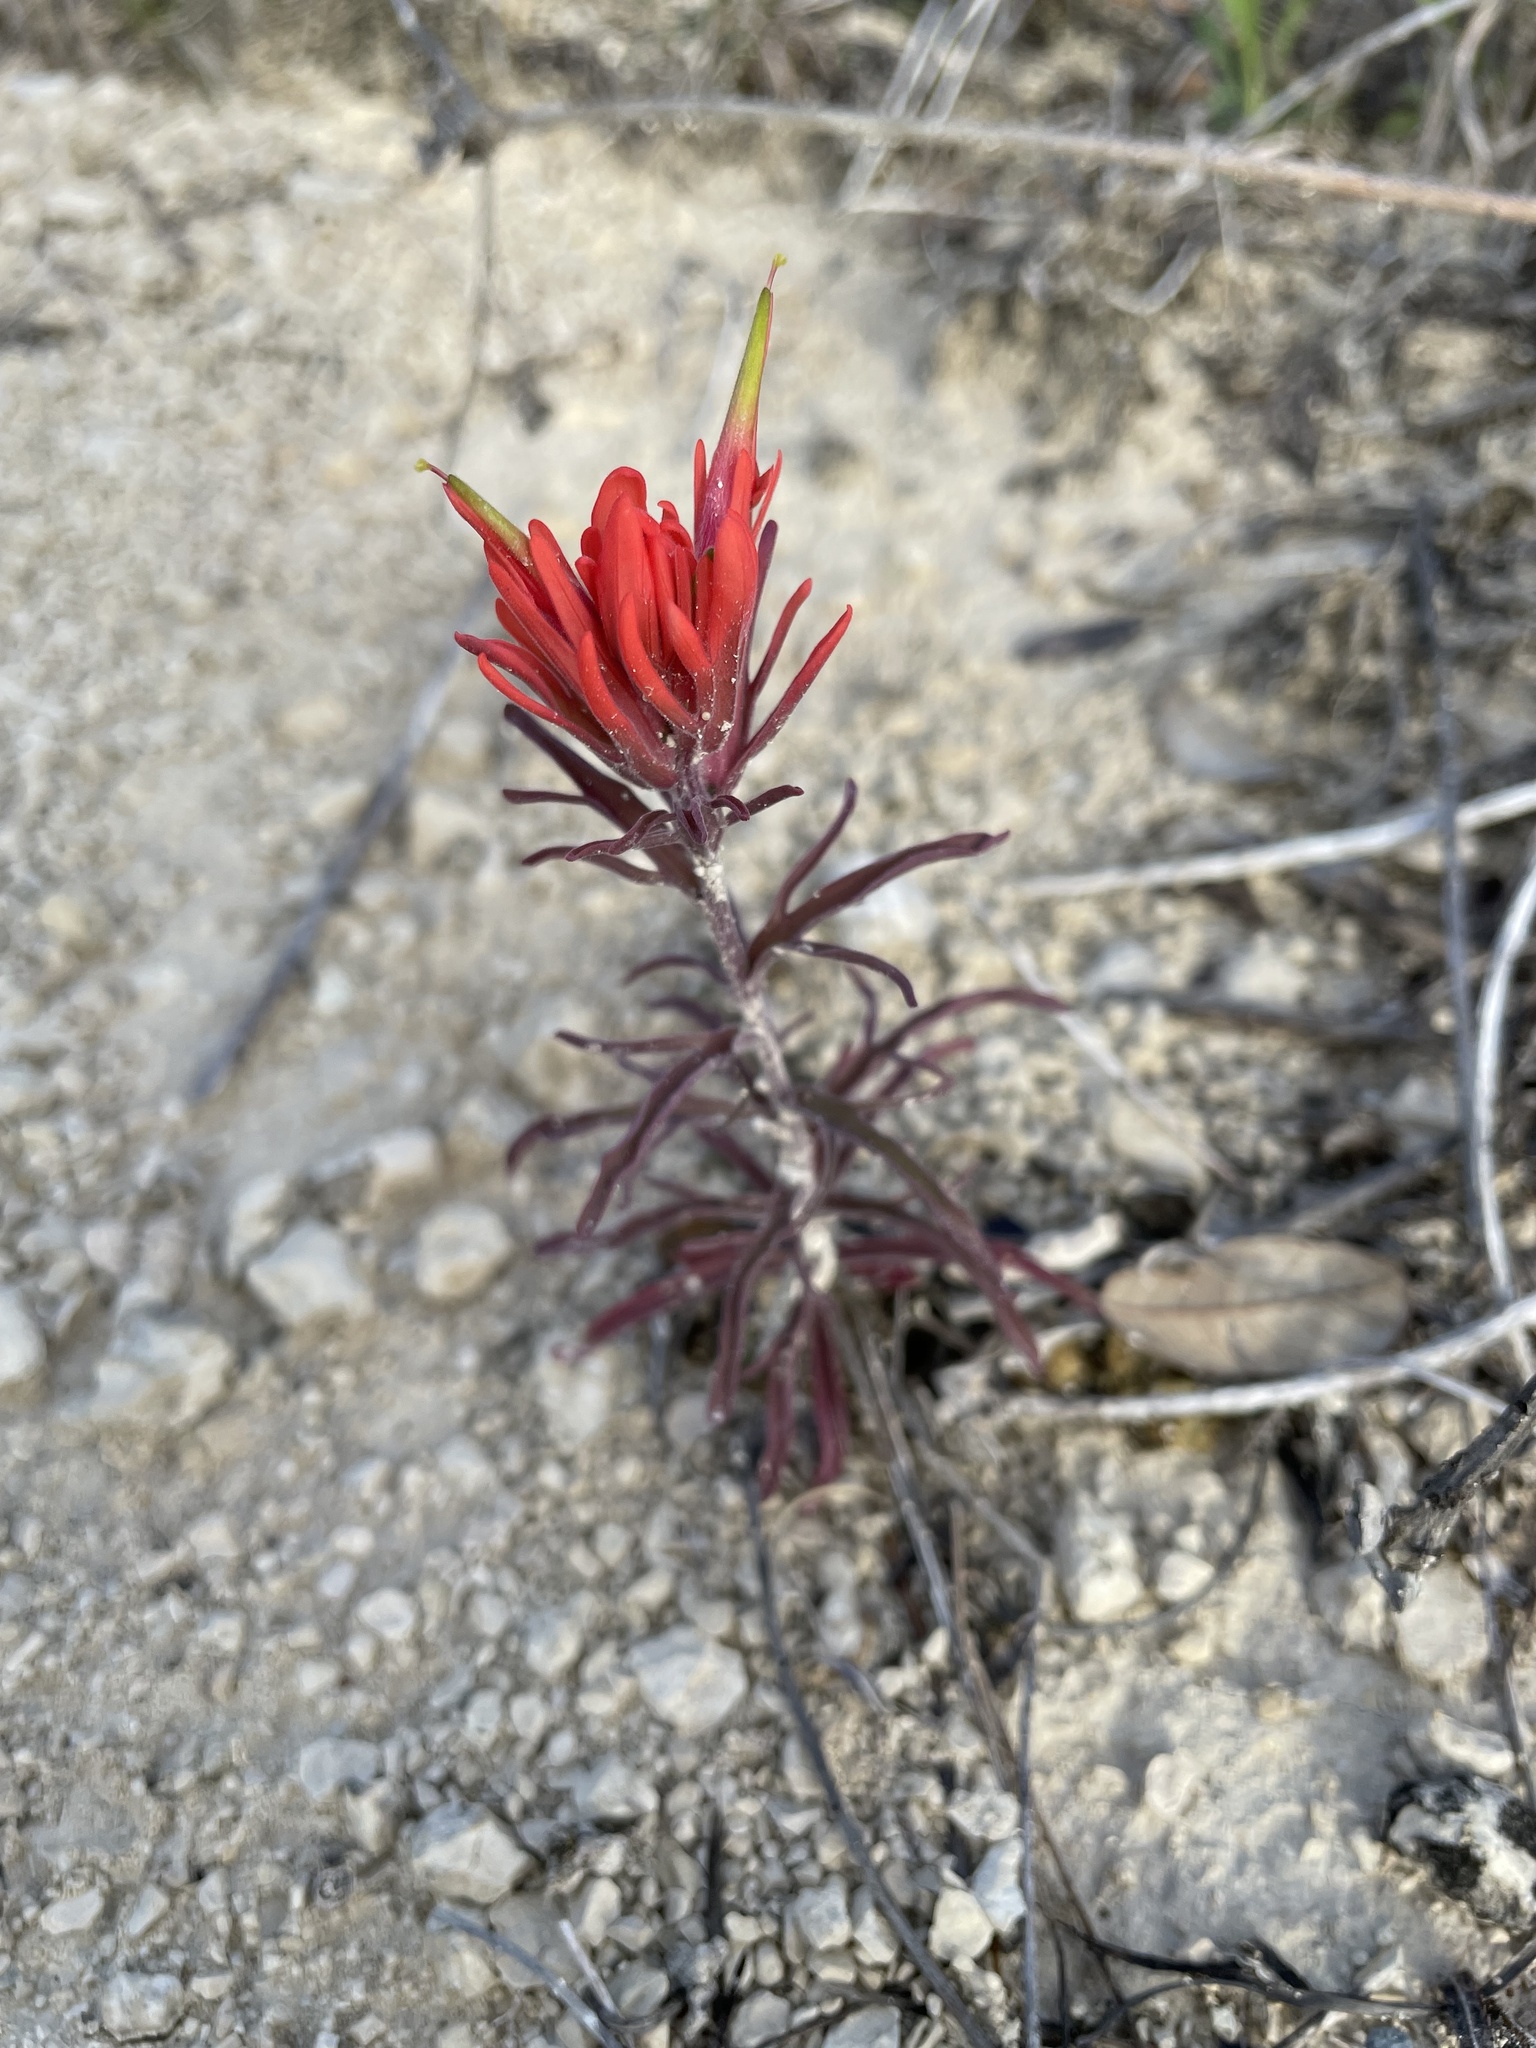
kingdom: Plantae
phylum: Tracheophyta
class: Magnoliopsida
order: Lamiales
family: Orobanchaceae
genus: Castilleja
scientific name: Castilleja lindheimeri
